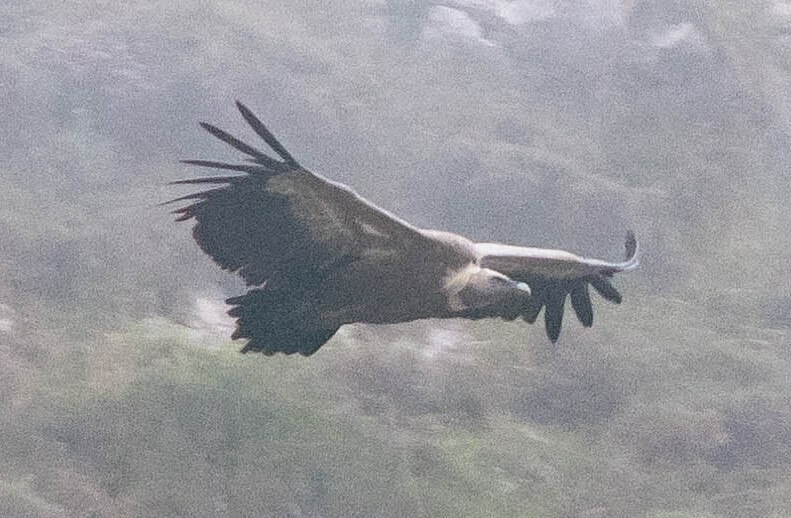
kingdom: Animalia
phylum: Chordata
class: Aves
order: Accipitriformes
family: Accipitridae
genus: Gyps
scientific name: Gyps fulvus
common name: Griffon vulture
